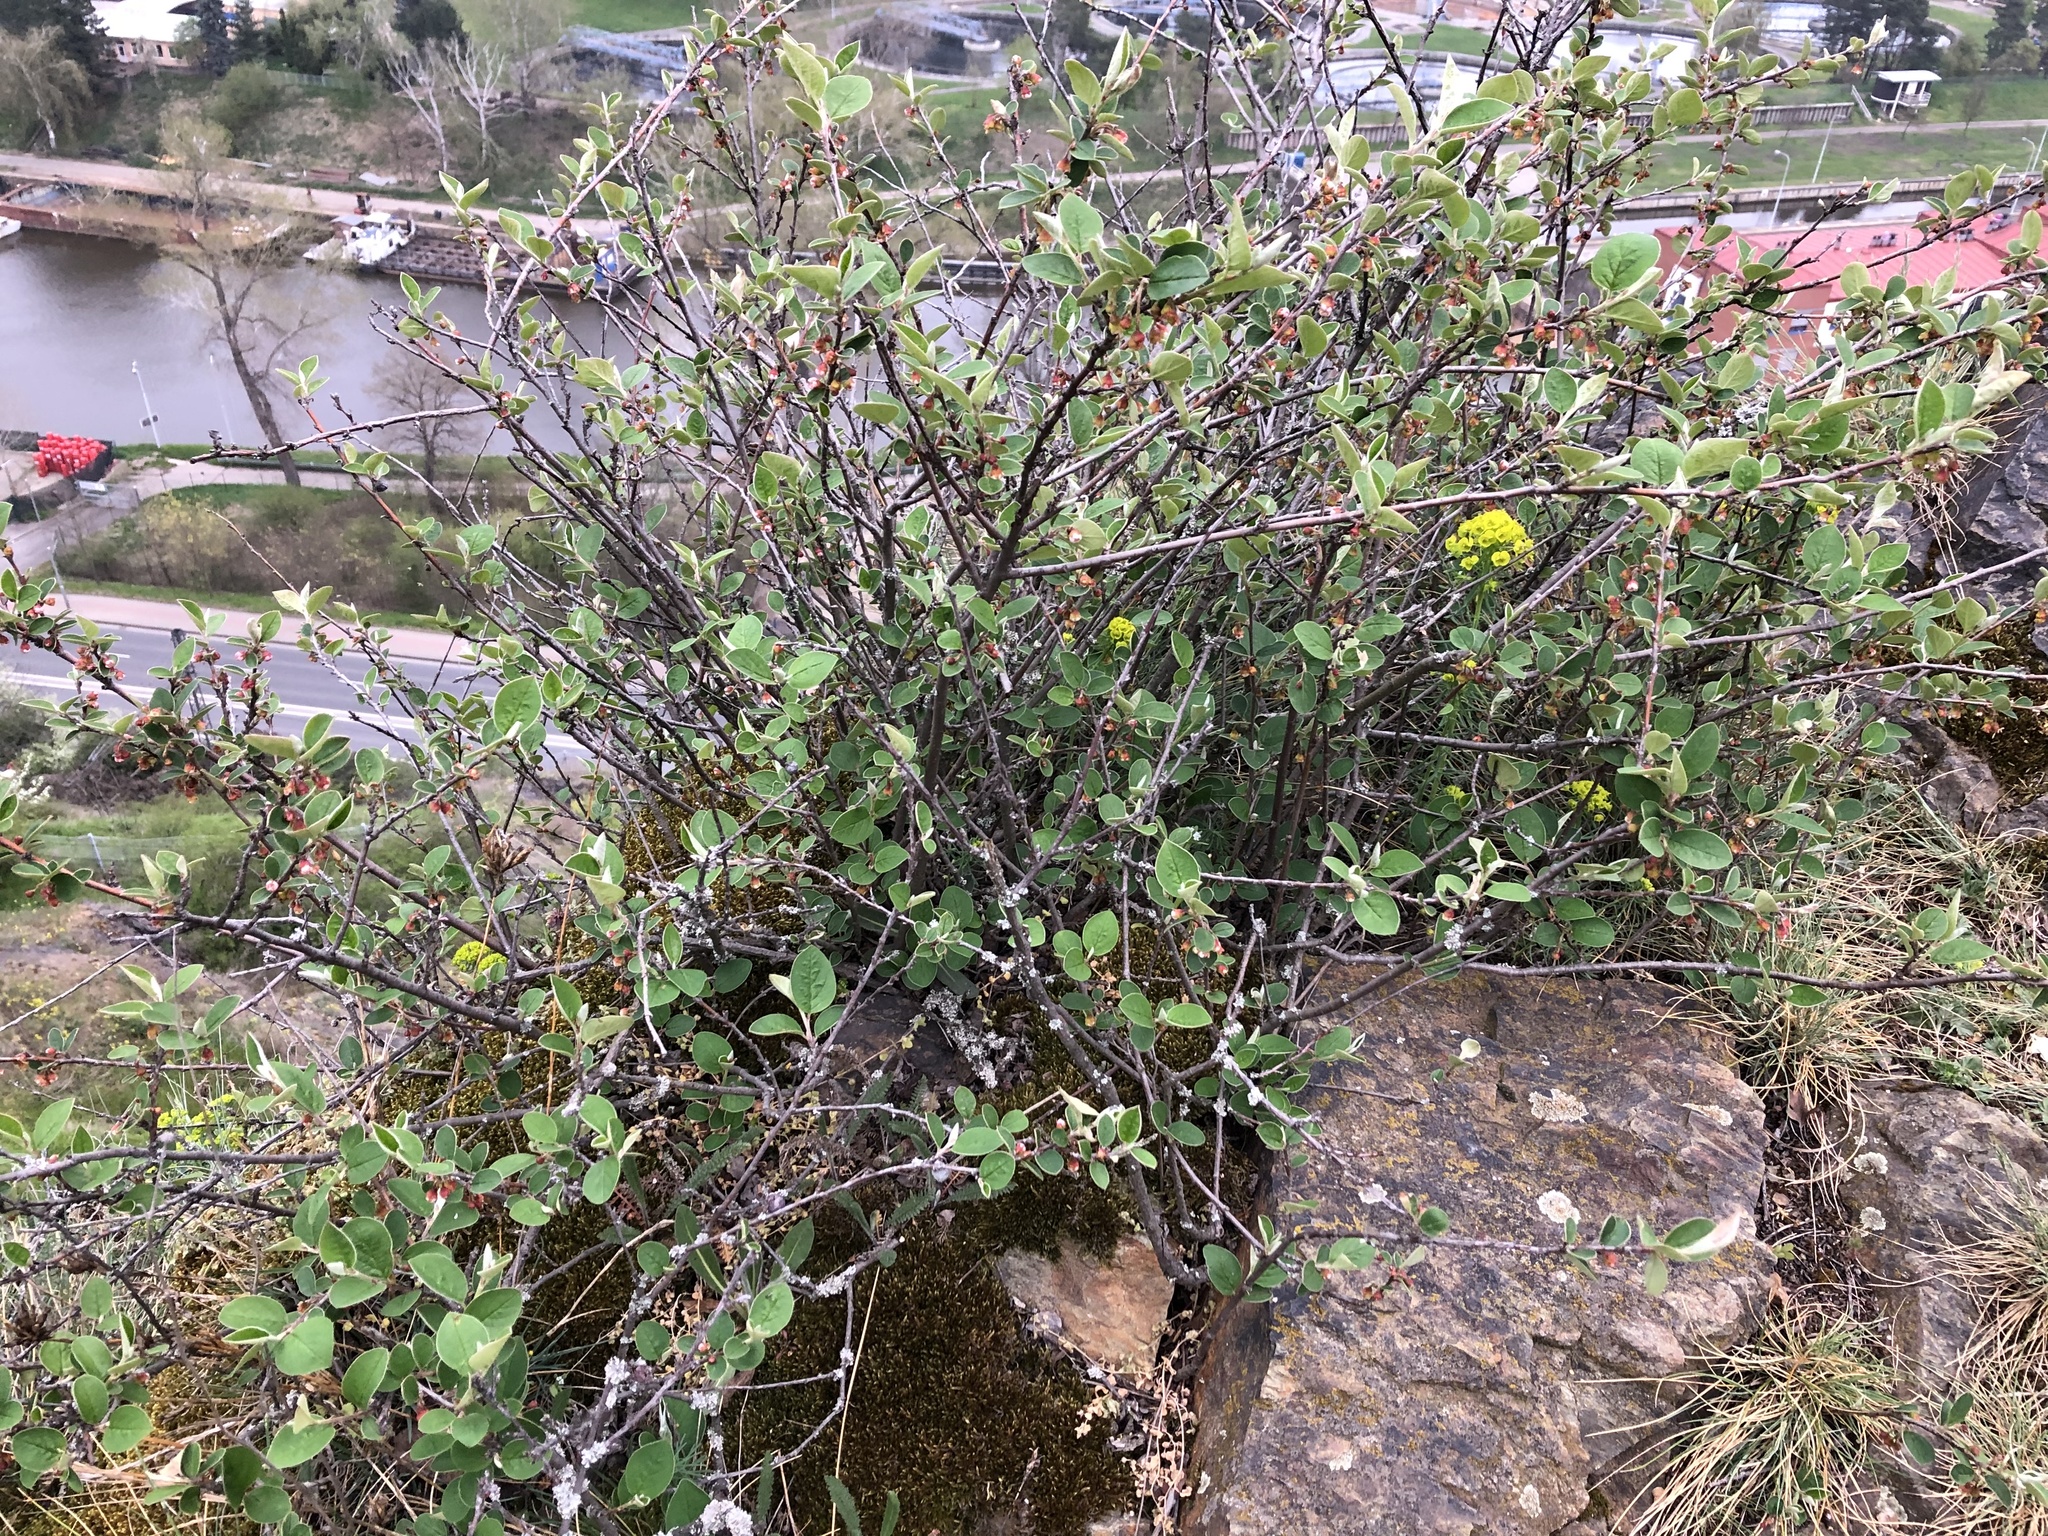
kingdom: Plantae
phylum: Tracheophyta
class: Magnoliopsida
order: Rosales
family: Rosaceae
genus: Cotoneaster
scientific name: Cotoneaster integerrimus
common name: Wild cotoneaster
